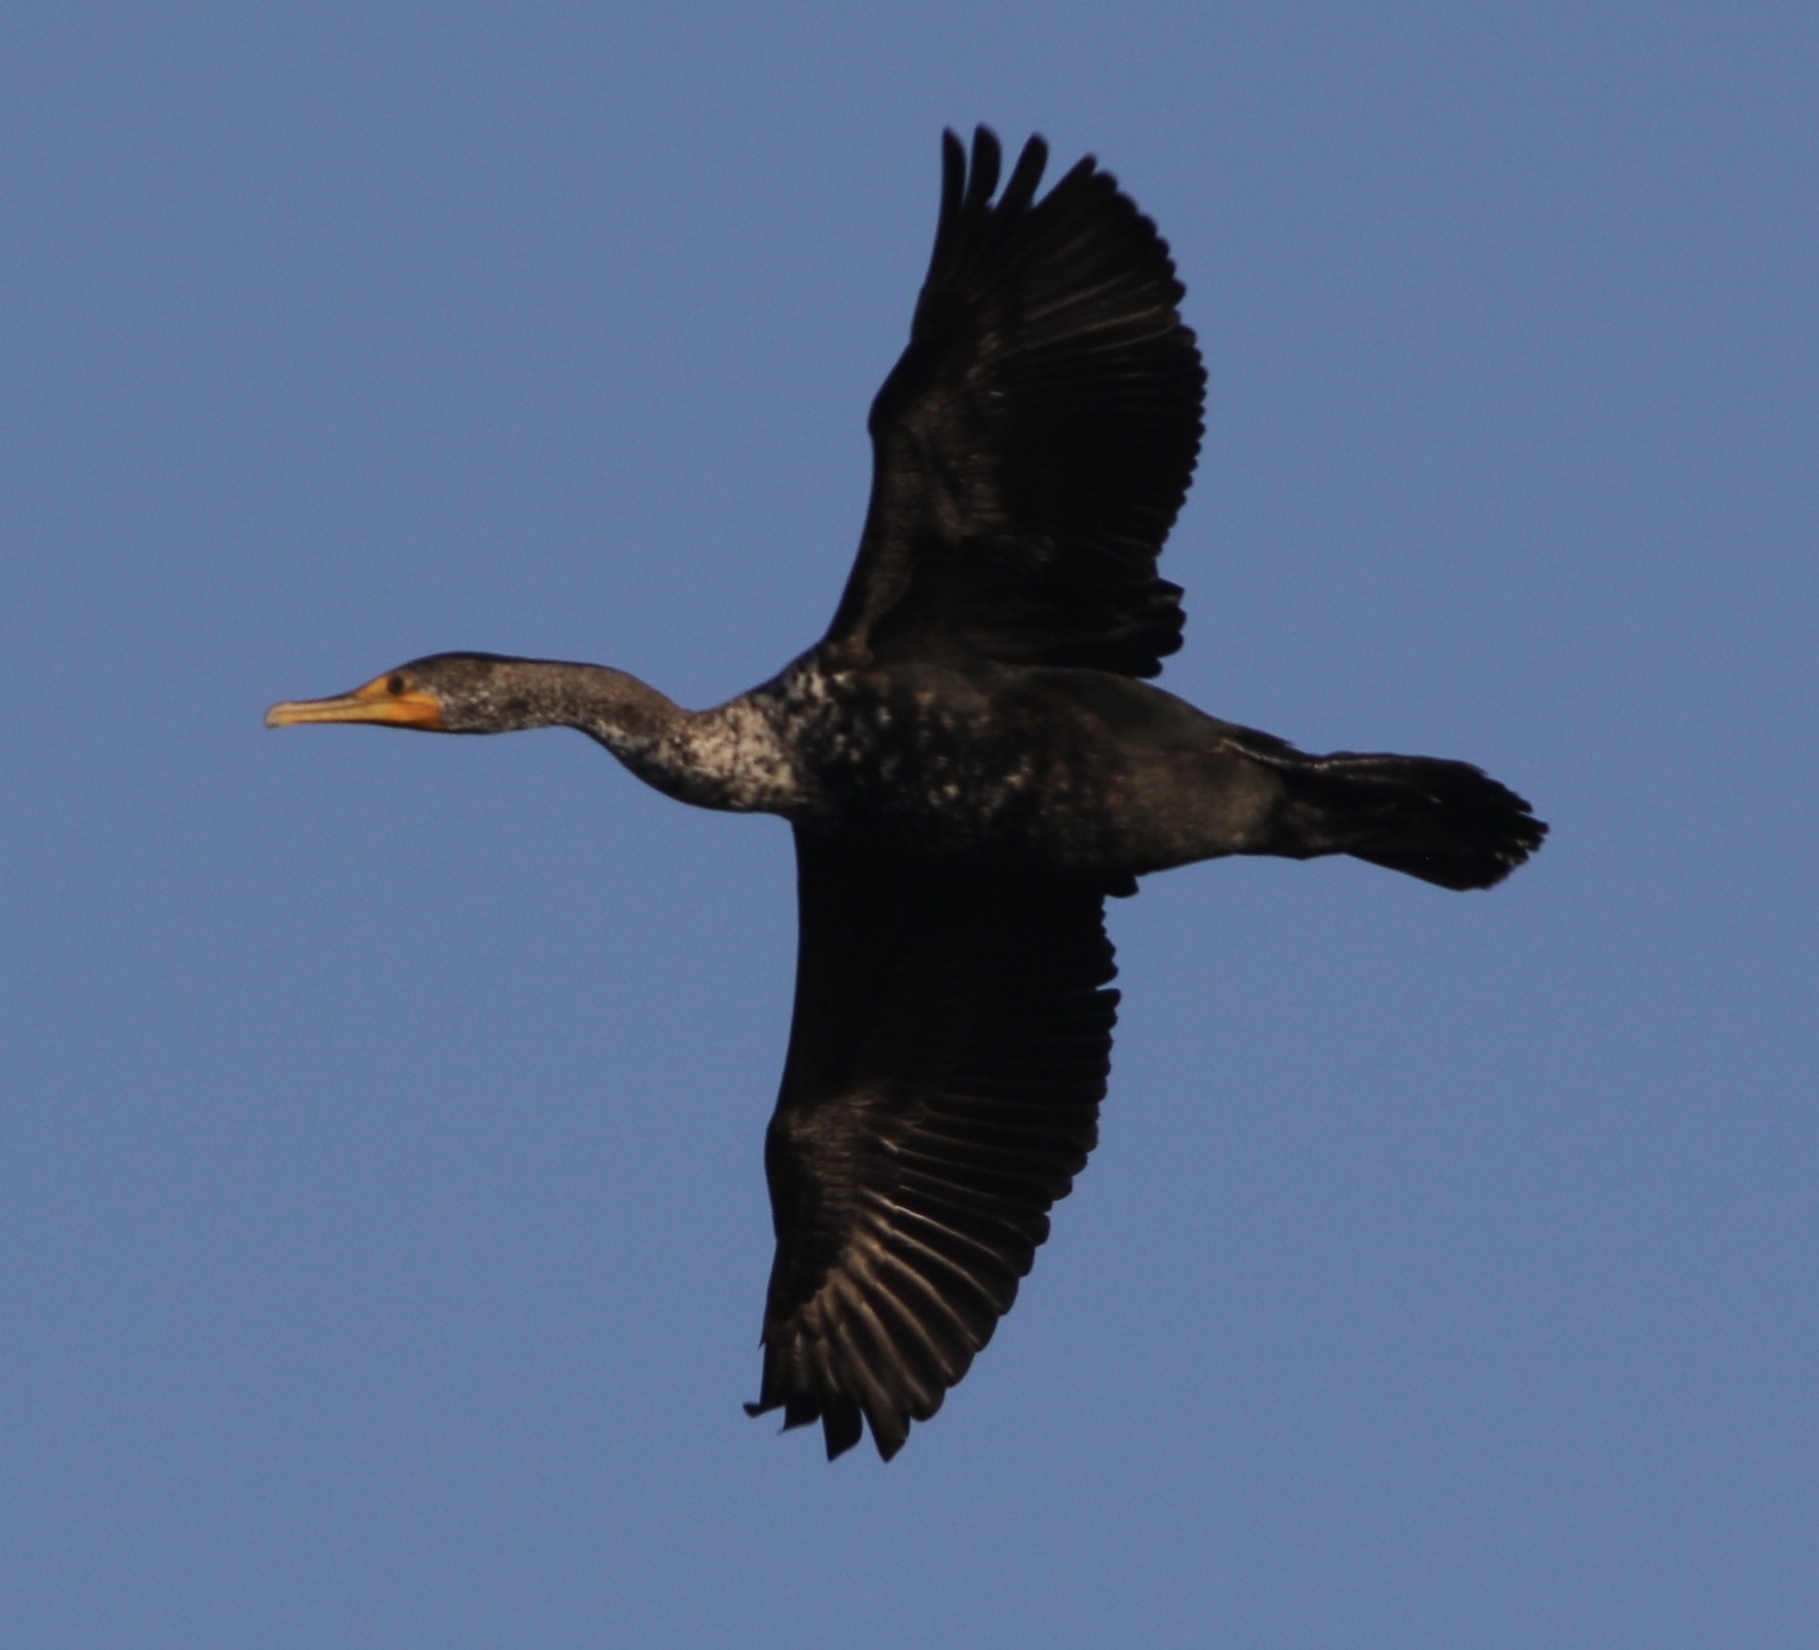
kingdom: Animalia
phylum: Chordata
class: Aves
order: Suliformes
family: Phalacrocoracidae
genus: Phalacrocorax
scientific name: Phalacrocorax auritus
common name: Double-crested cormorant
